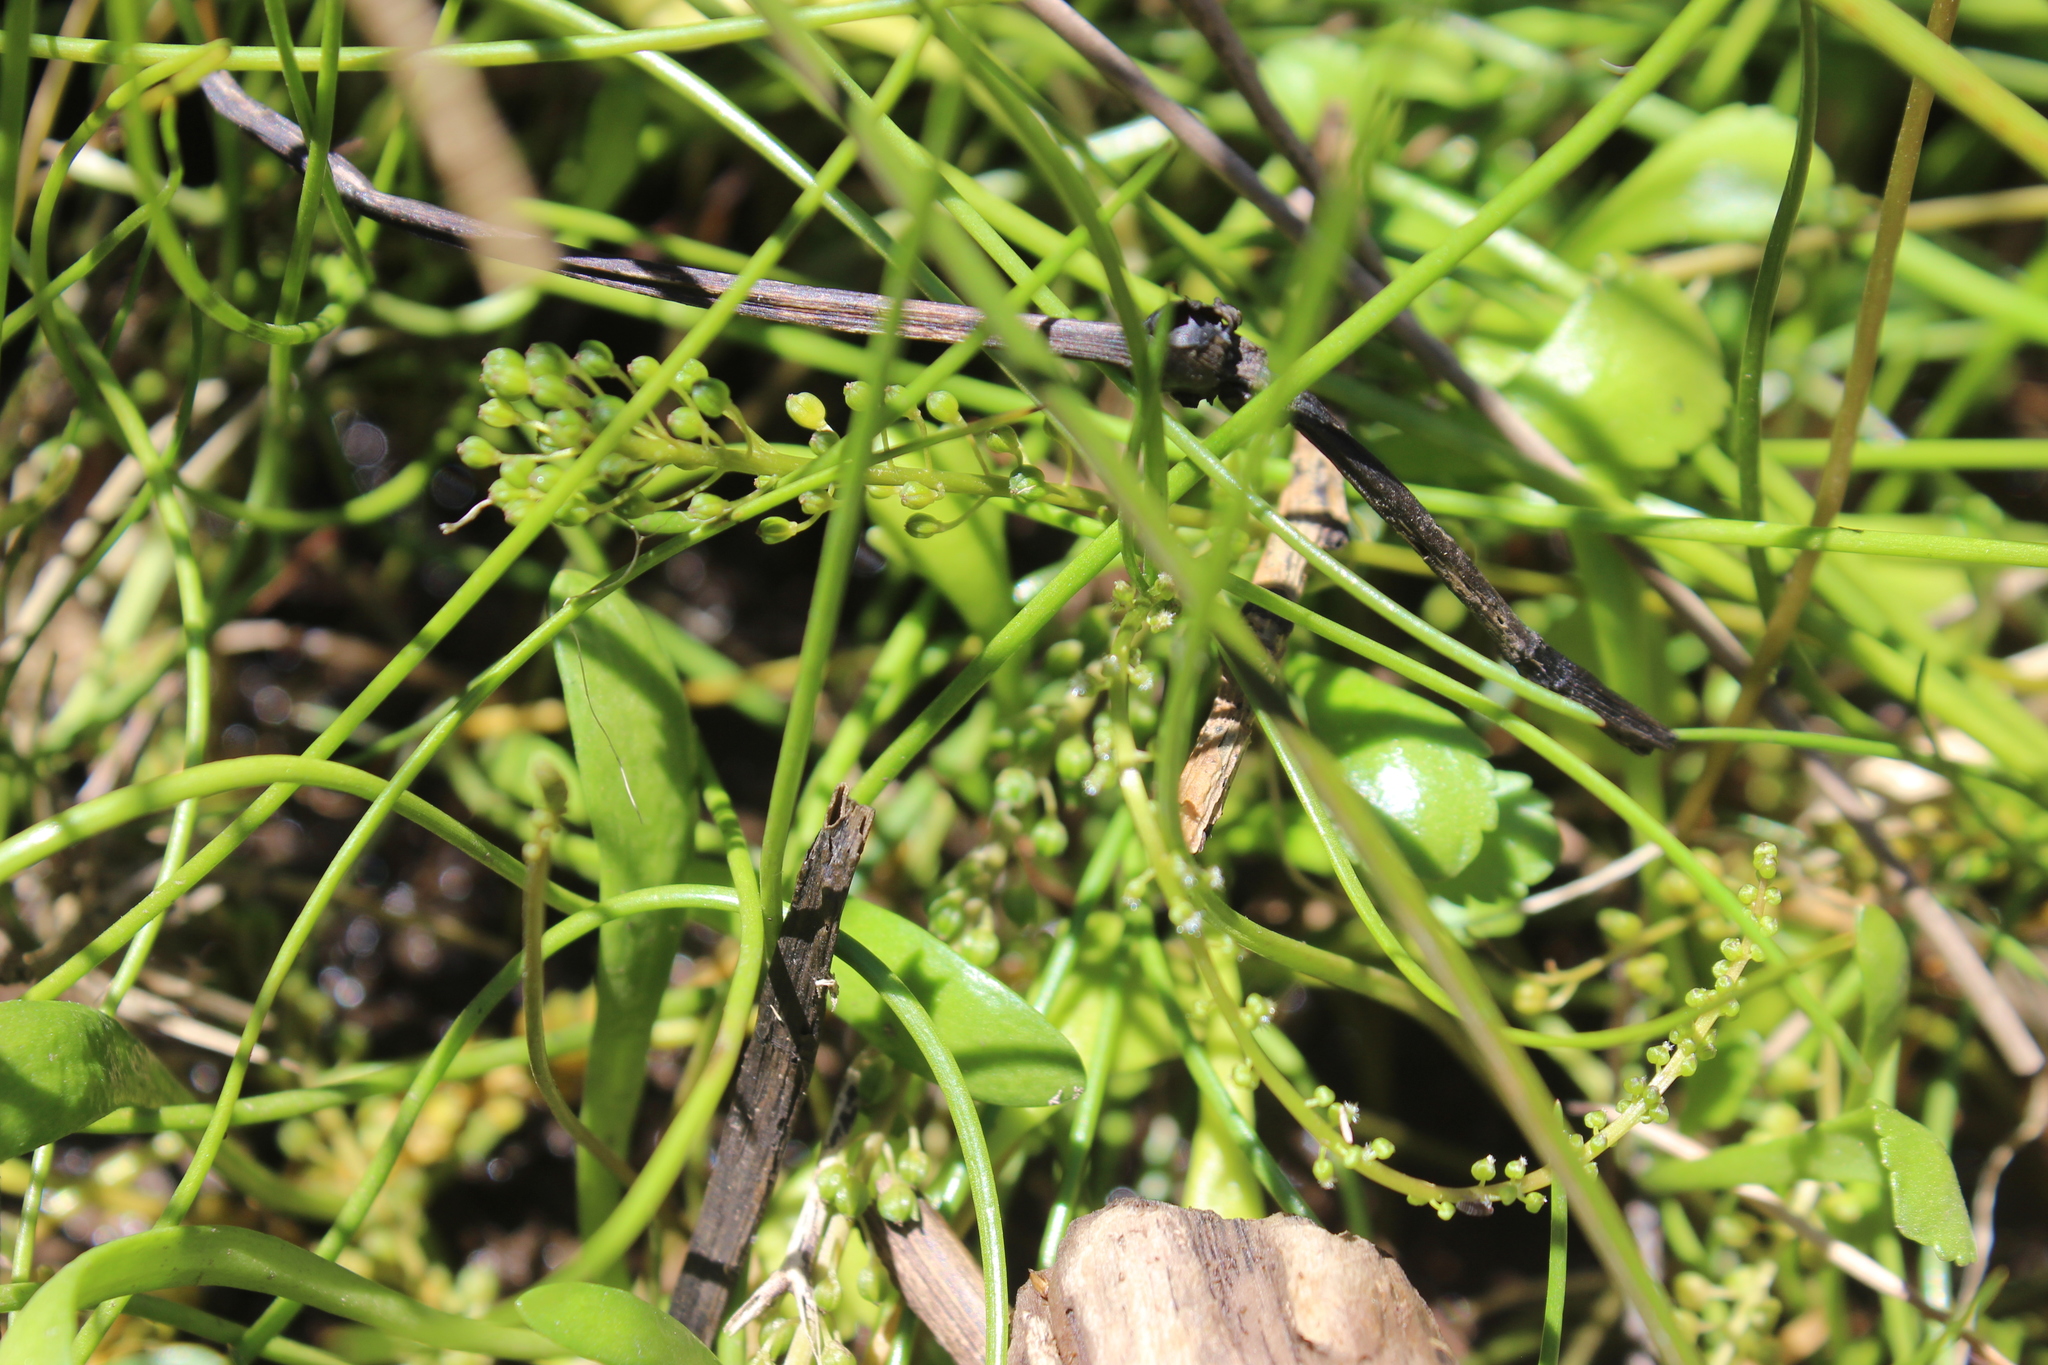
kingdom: Plantae
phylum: Tracheophyta
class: Liliopsida
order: Alismatales
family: Juncaginaceae
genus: Triglochin
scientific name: Triglochin striata
